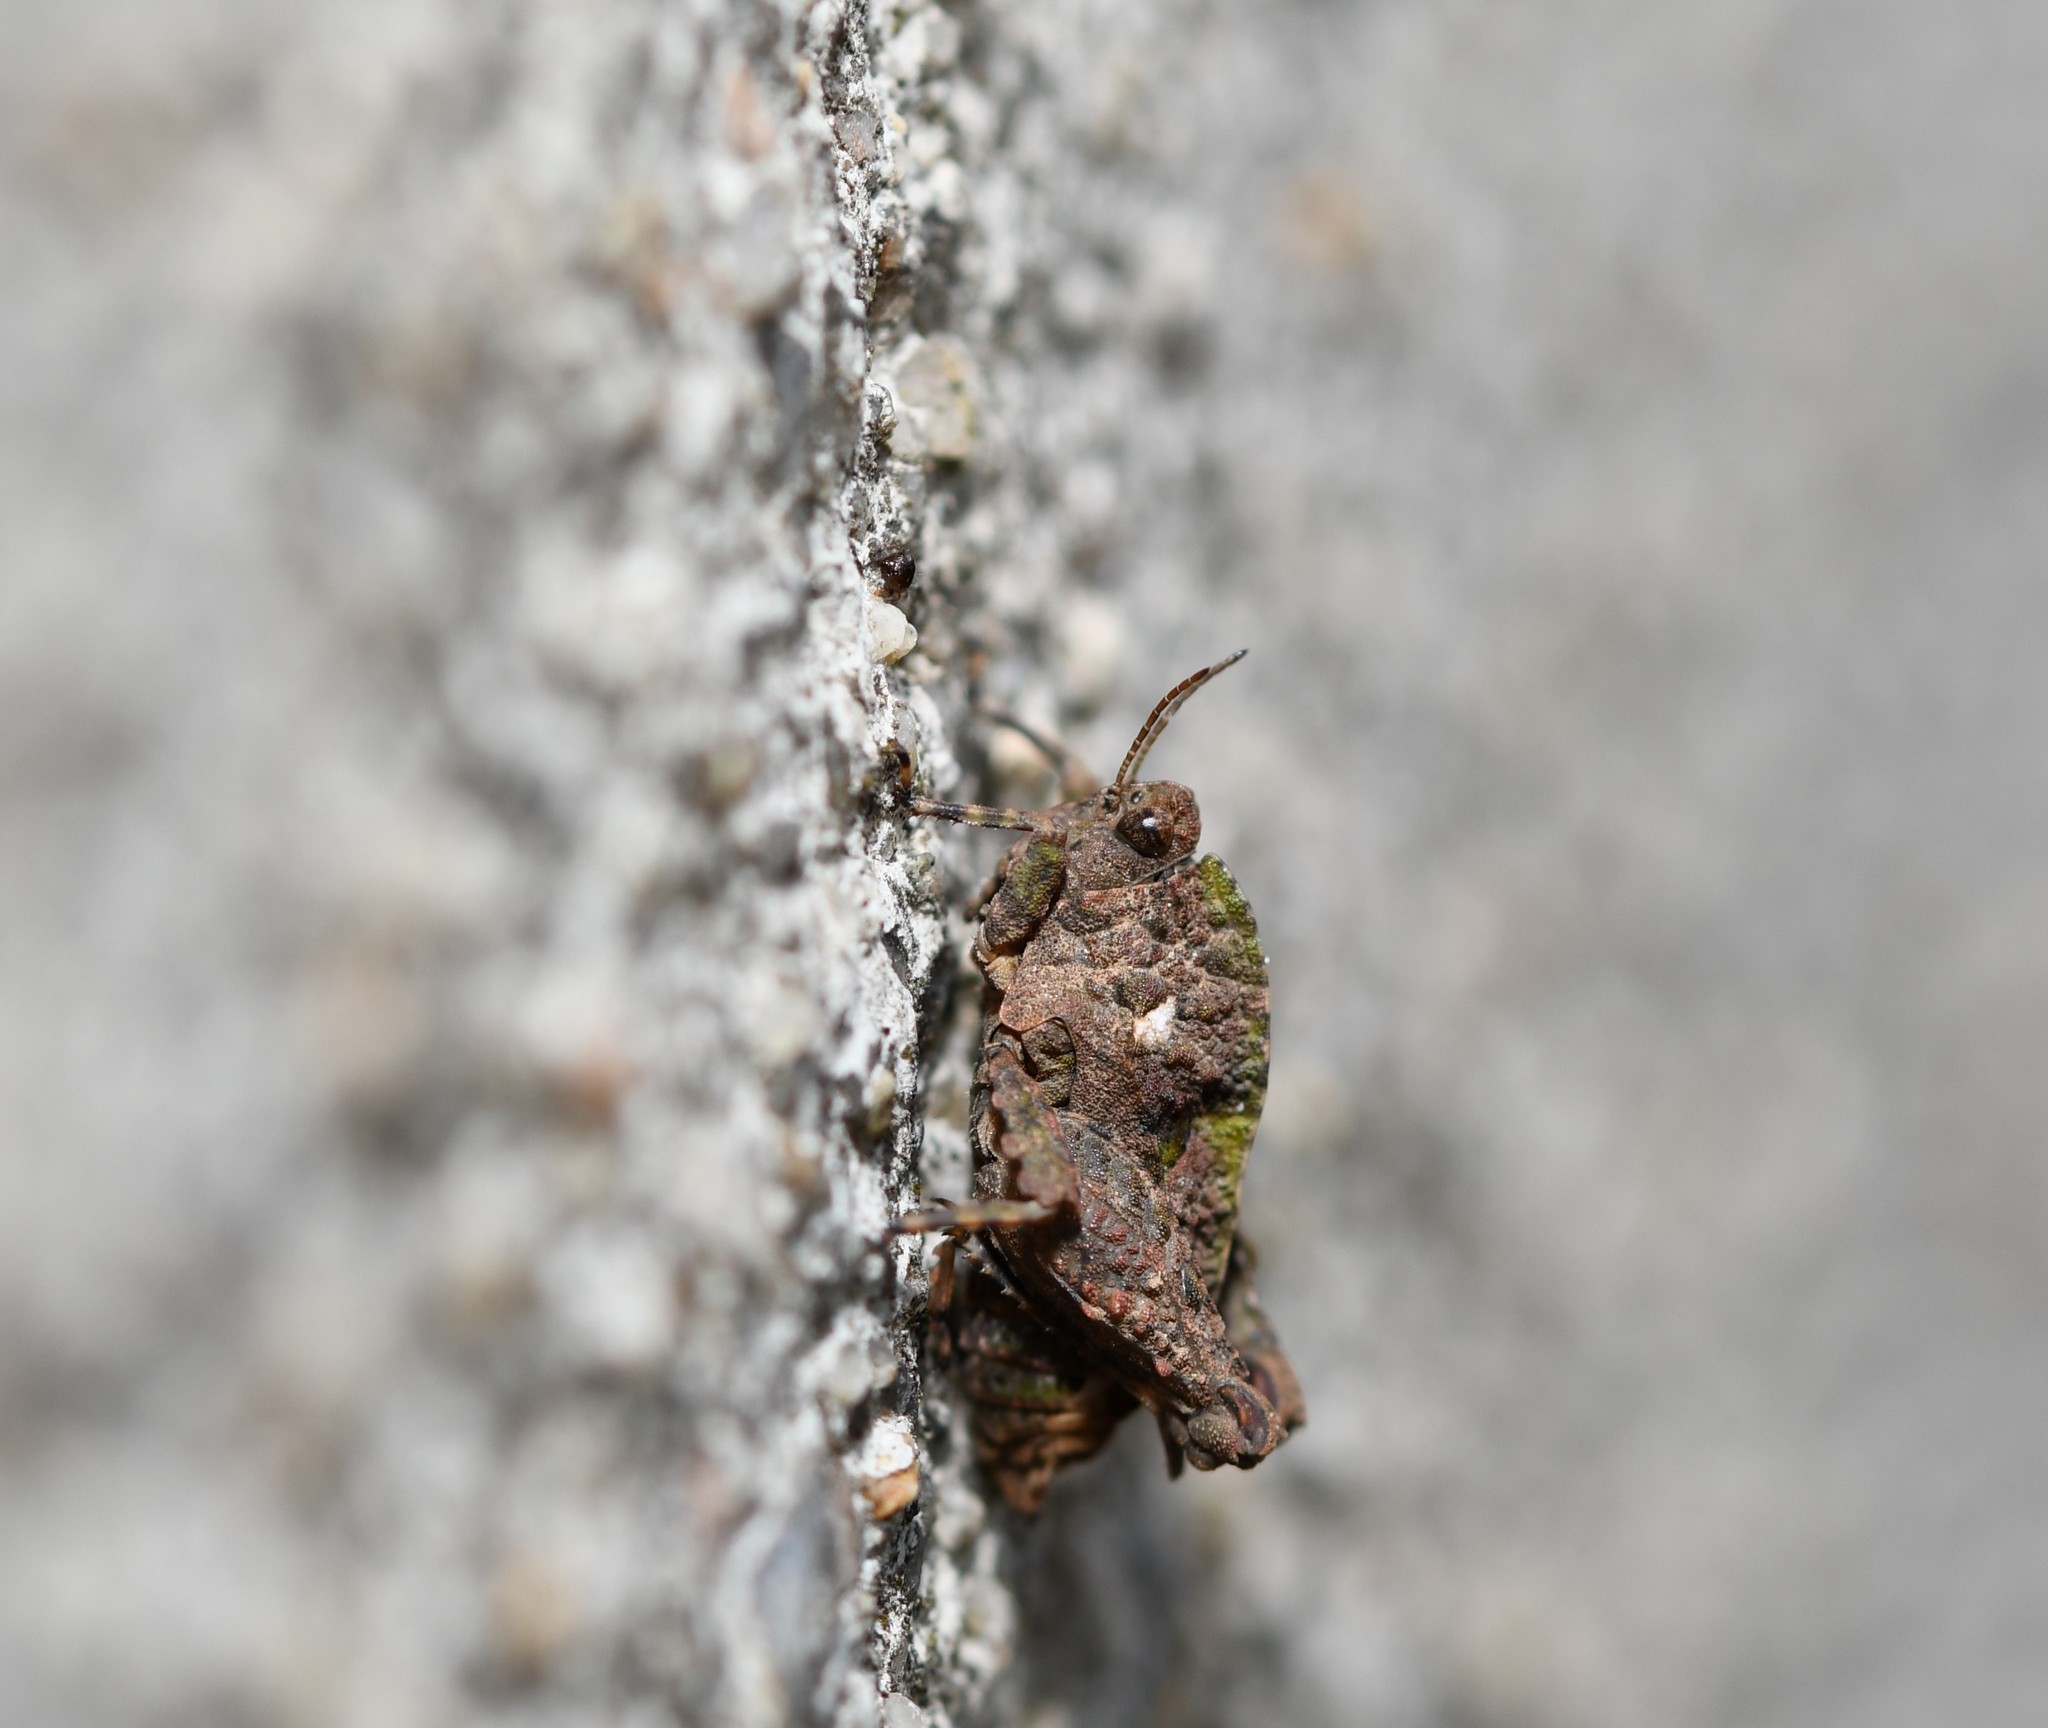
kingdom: Animalia
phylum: Arthropoda
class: Insecta
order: Orthoptera
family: Tetrigidae
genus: Tetrix
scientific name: Tetrix nodulosa
